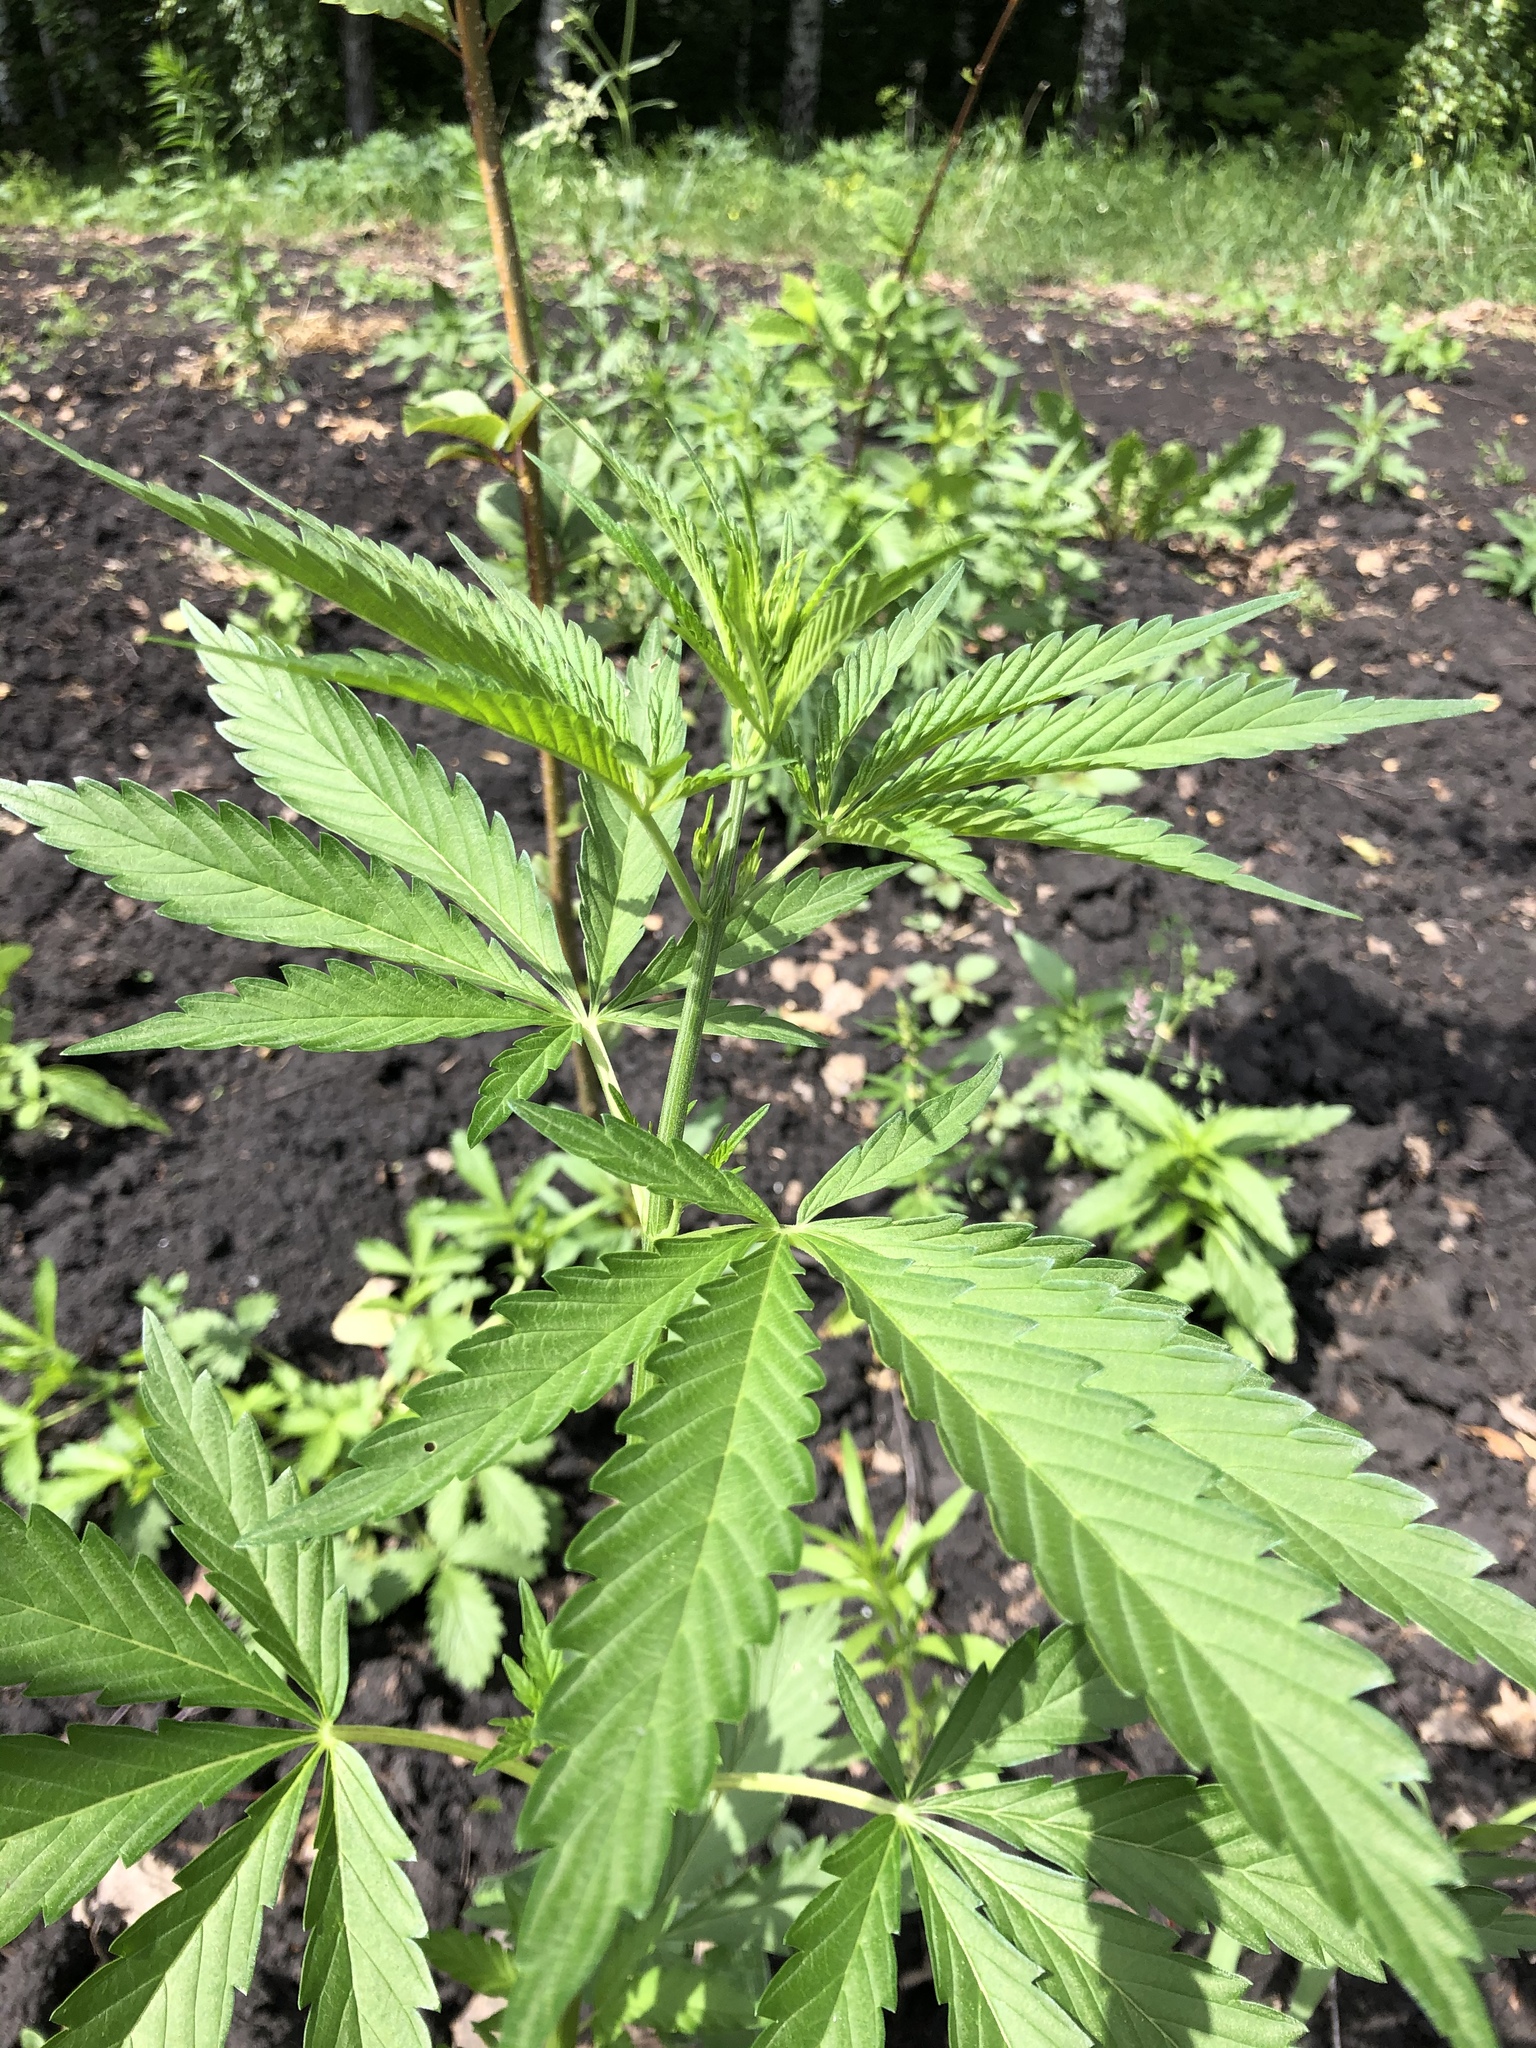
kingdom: Plantae
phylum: Tracheophyta
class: Magnoliopsida
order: Rosales
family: Cannabaceae
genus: Cannabis
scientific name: Cannabis sativa
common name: Hemp
